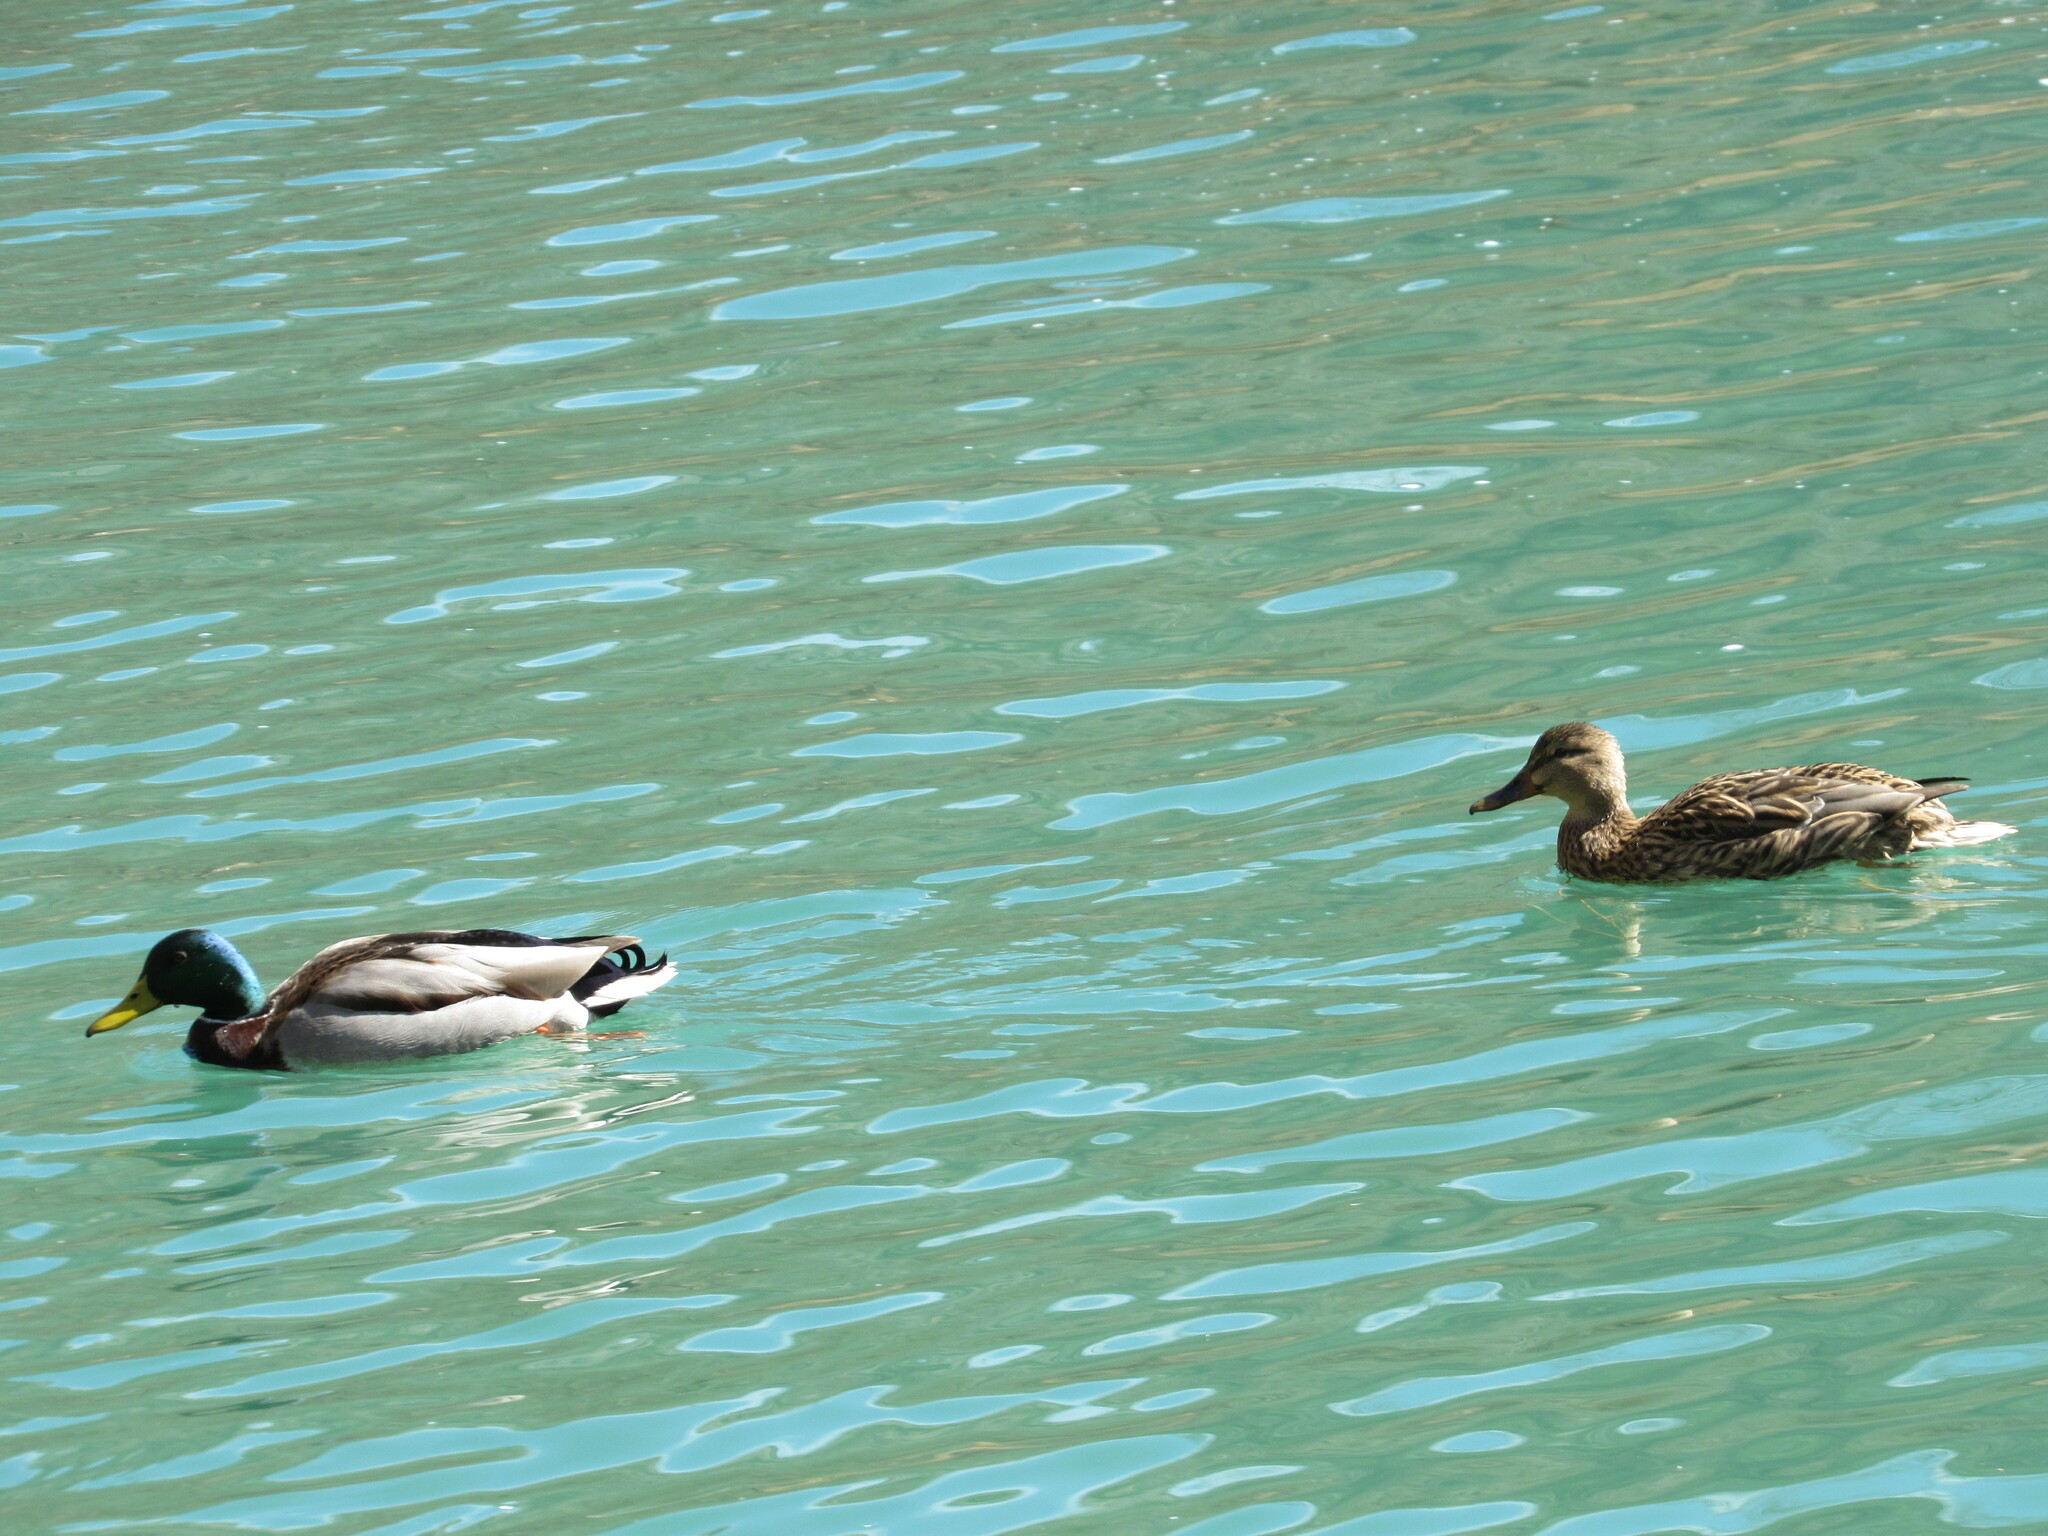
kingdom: Animalia
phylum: Chordata
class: Aves
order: Anseriformes
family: Anatidae
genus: Anas
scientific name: Anas platyrhynchos
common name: Mallard
